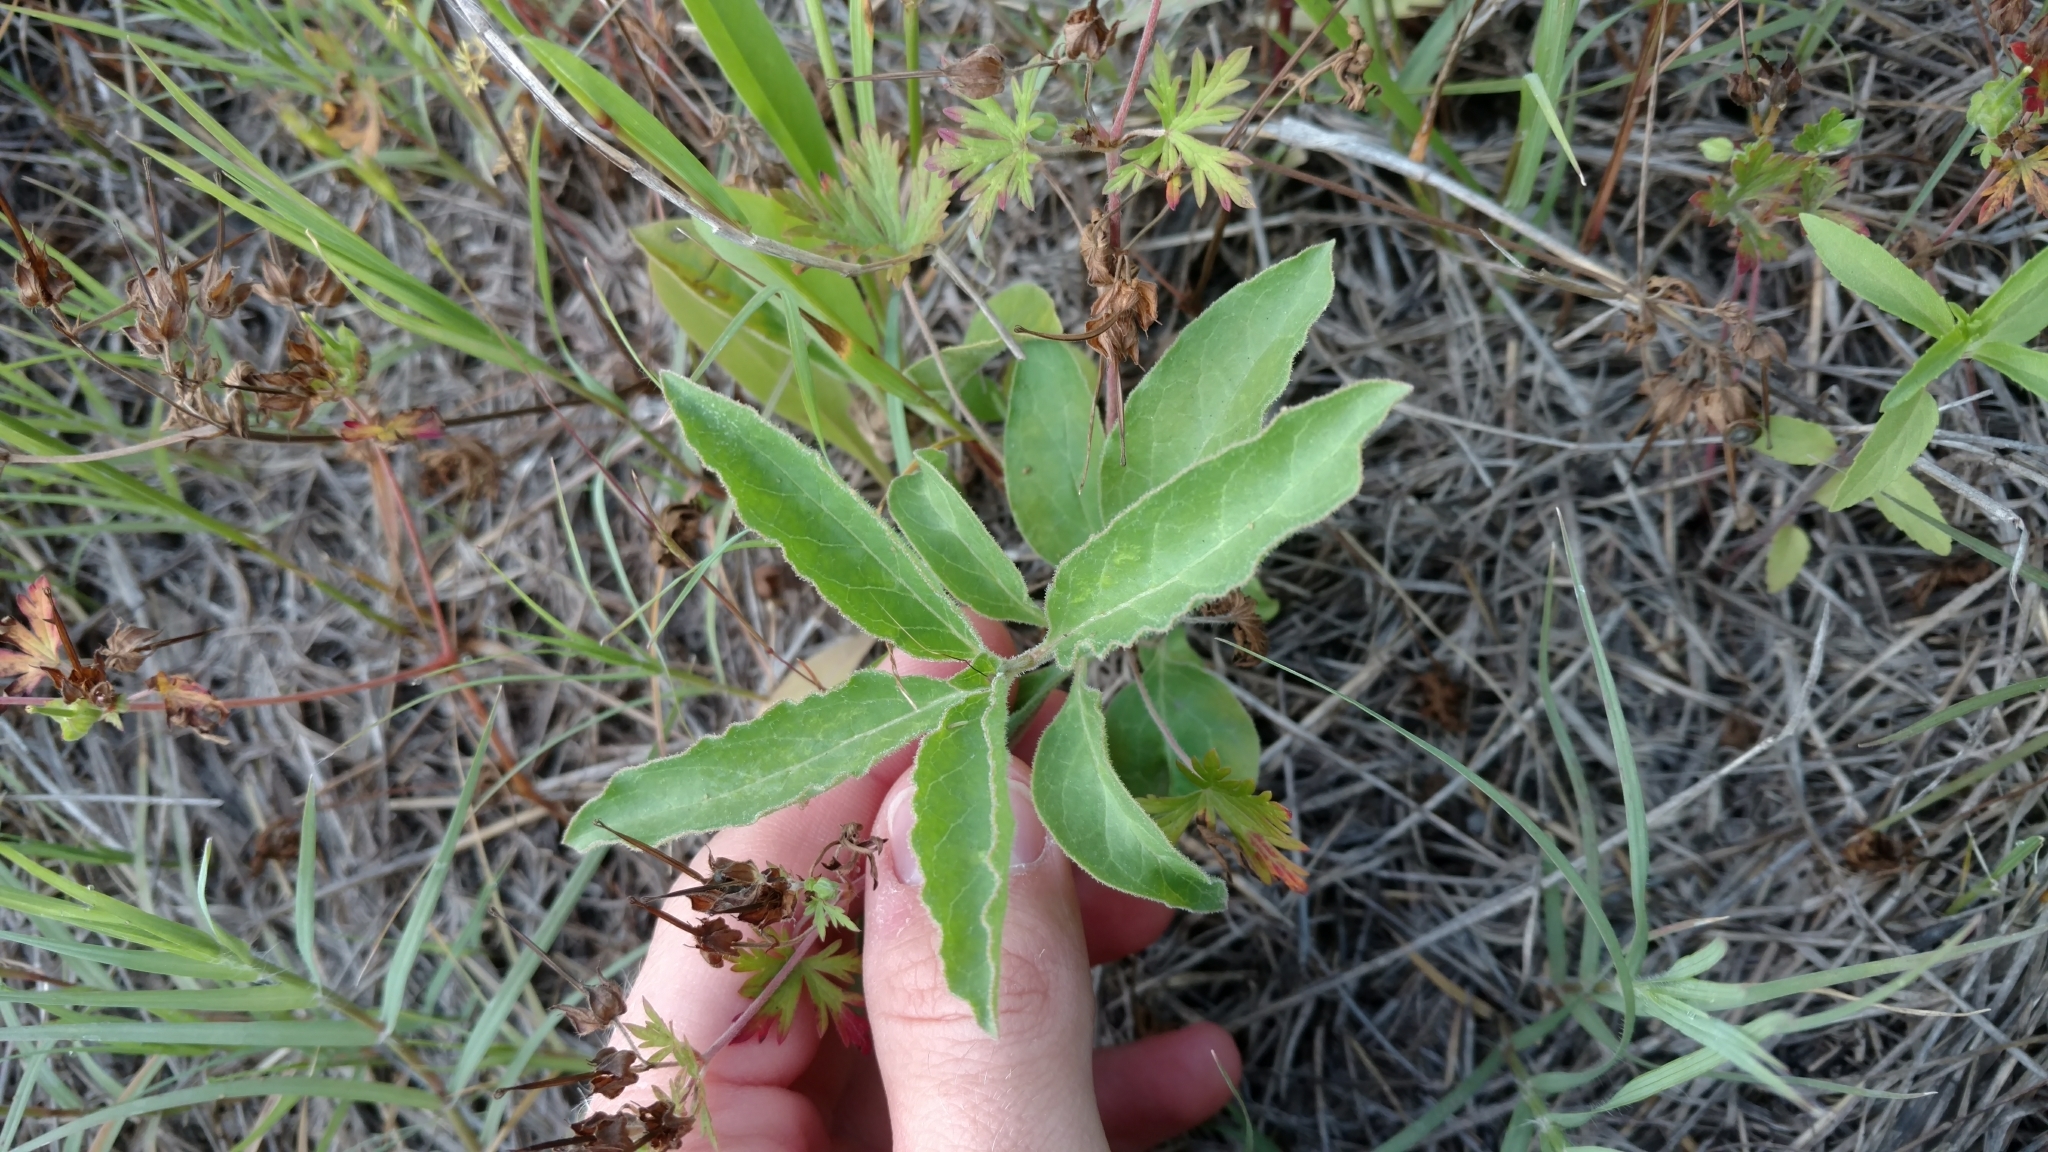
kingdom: Plantae
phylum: Tracheophyta
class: Magnoliopsida
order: Gentianales
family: Apocynaceae
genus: Asclepias
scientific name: Asclepias oenotheroides
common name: Zizotes milkweed
